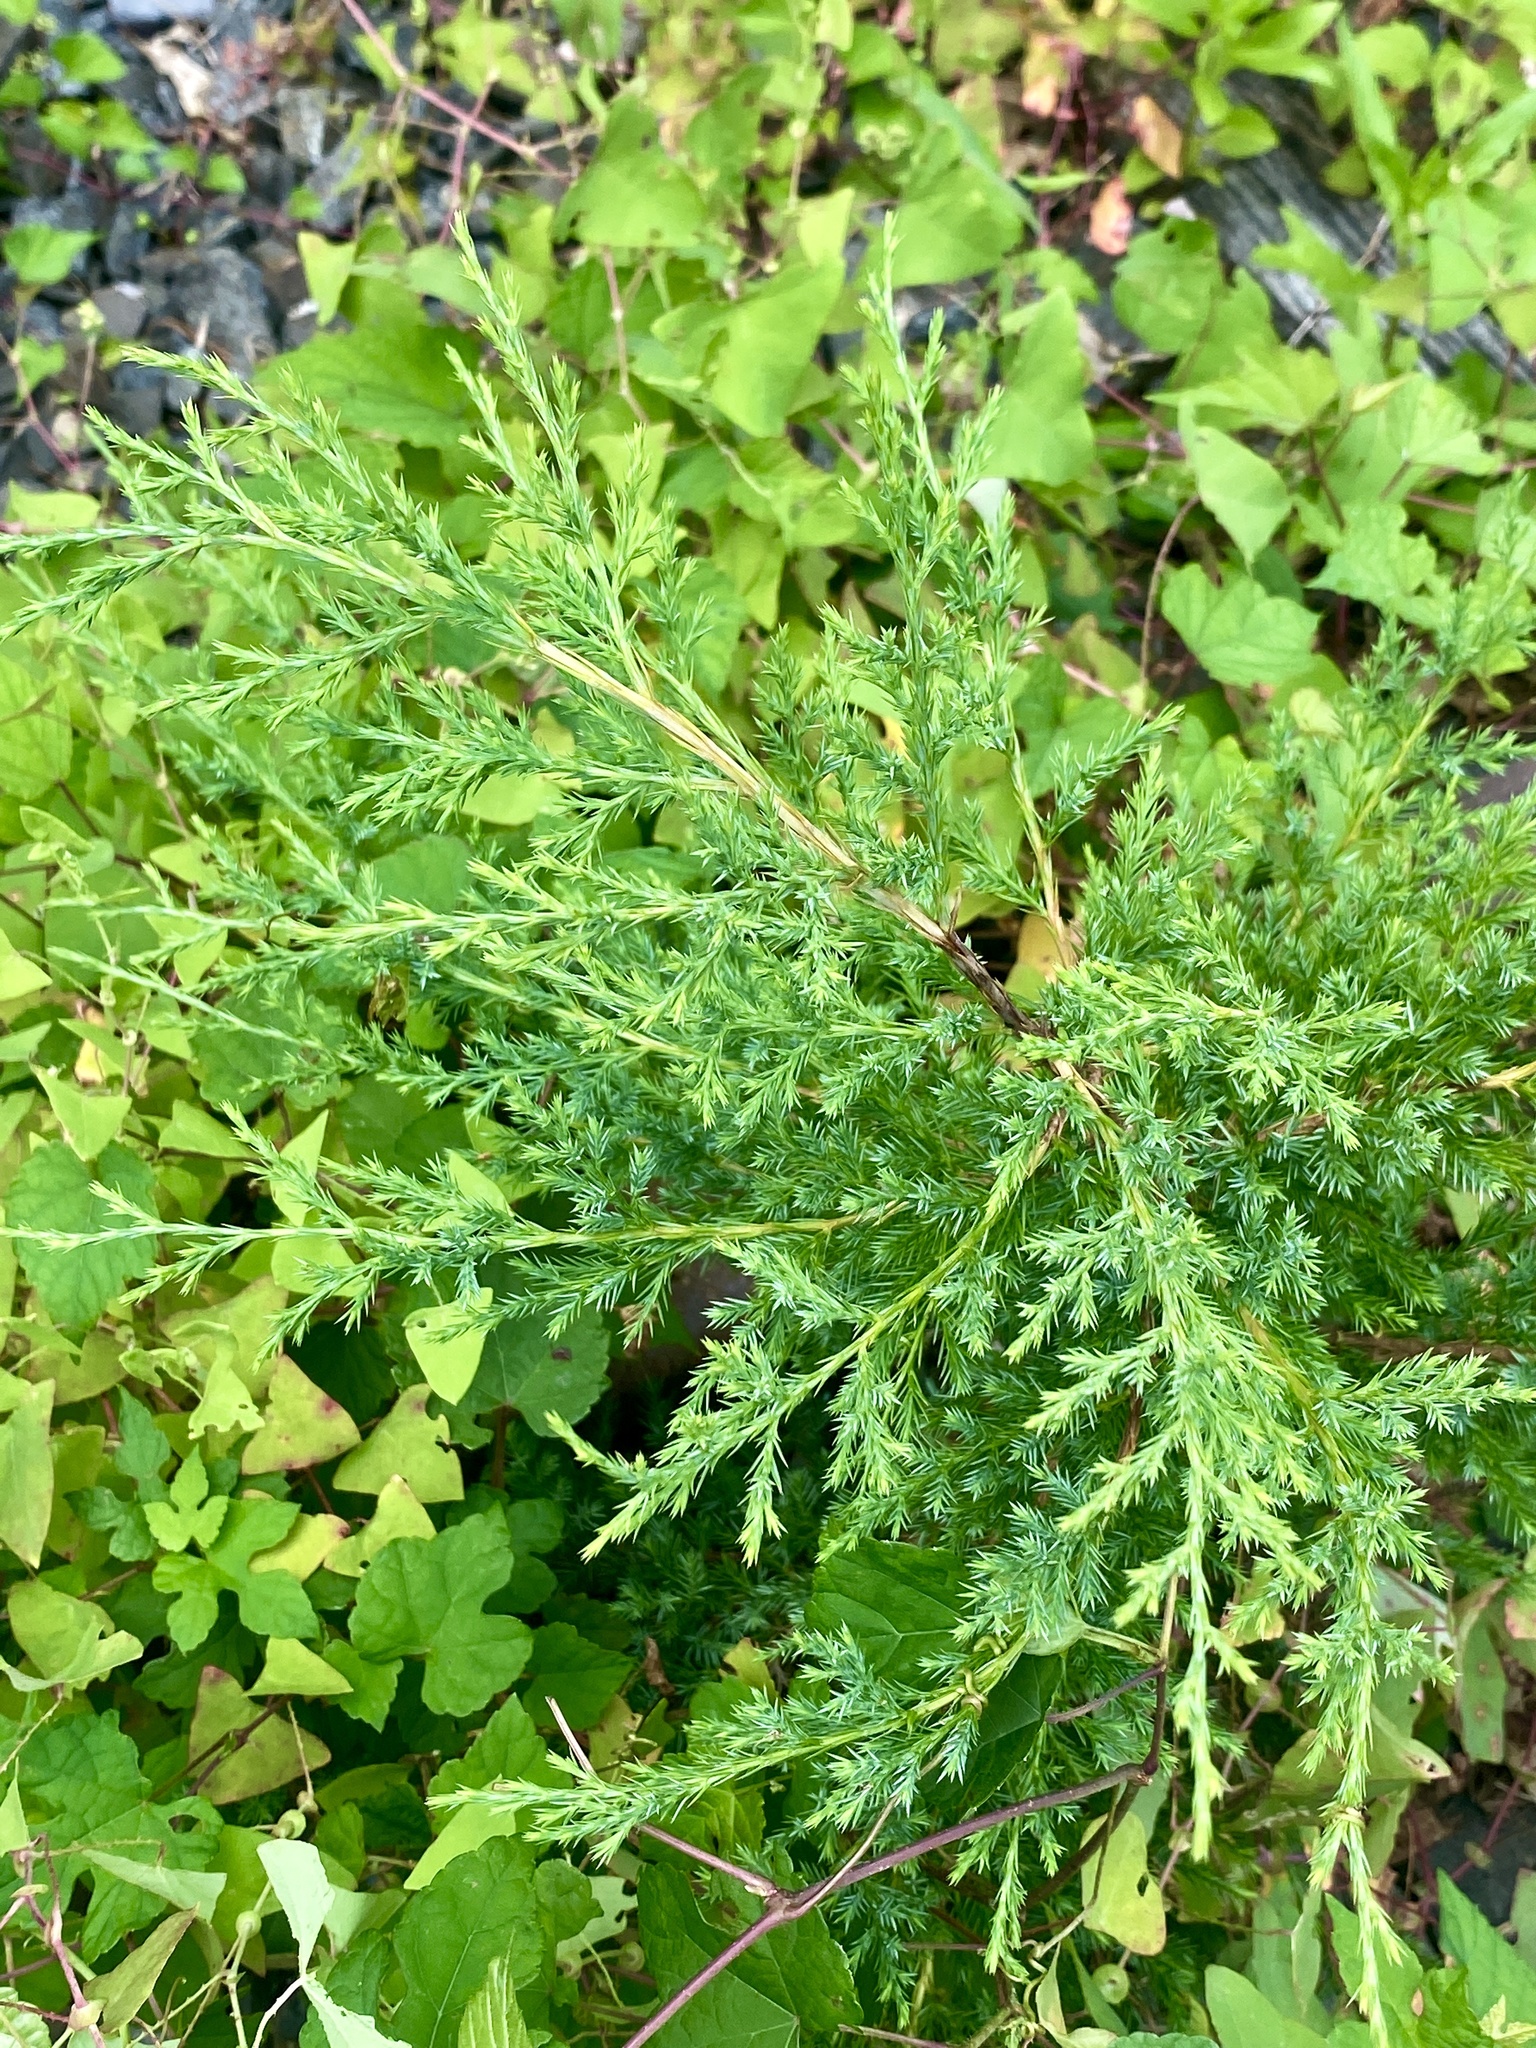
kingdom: Plantae
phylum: Tracheophyta
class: Pinopsida
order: Pinales
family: Cupressaceae
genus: Juniperus
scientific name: Juniperus virginiana
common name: Red juniper
